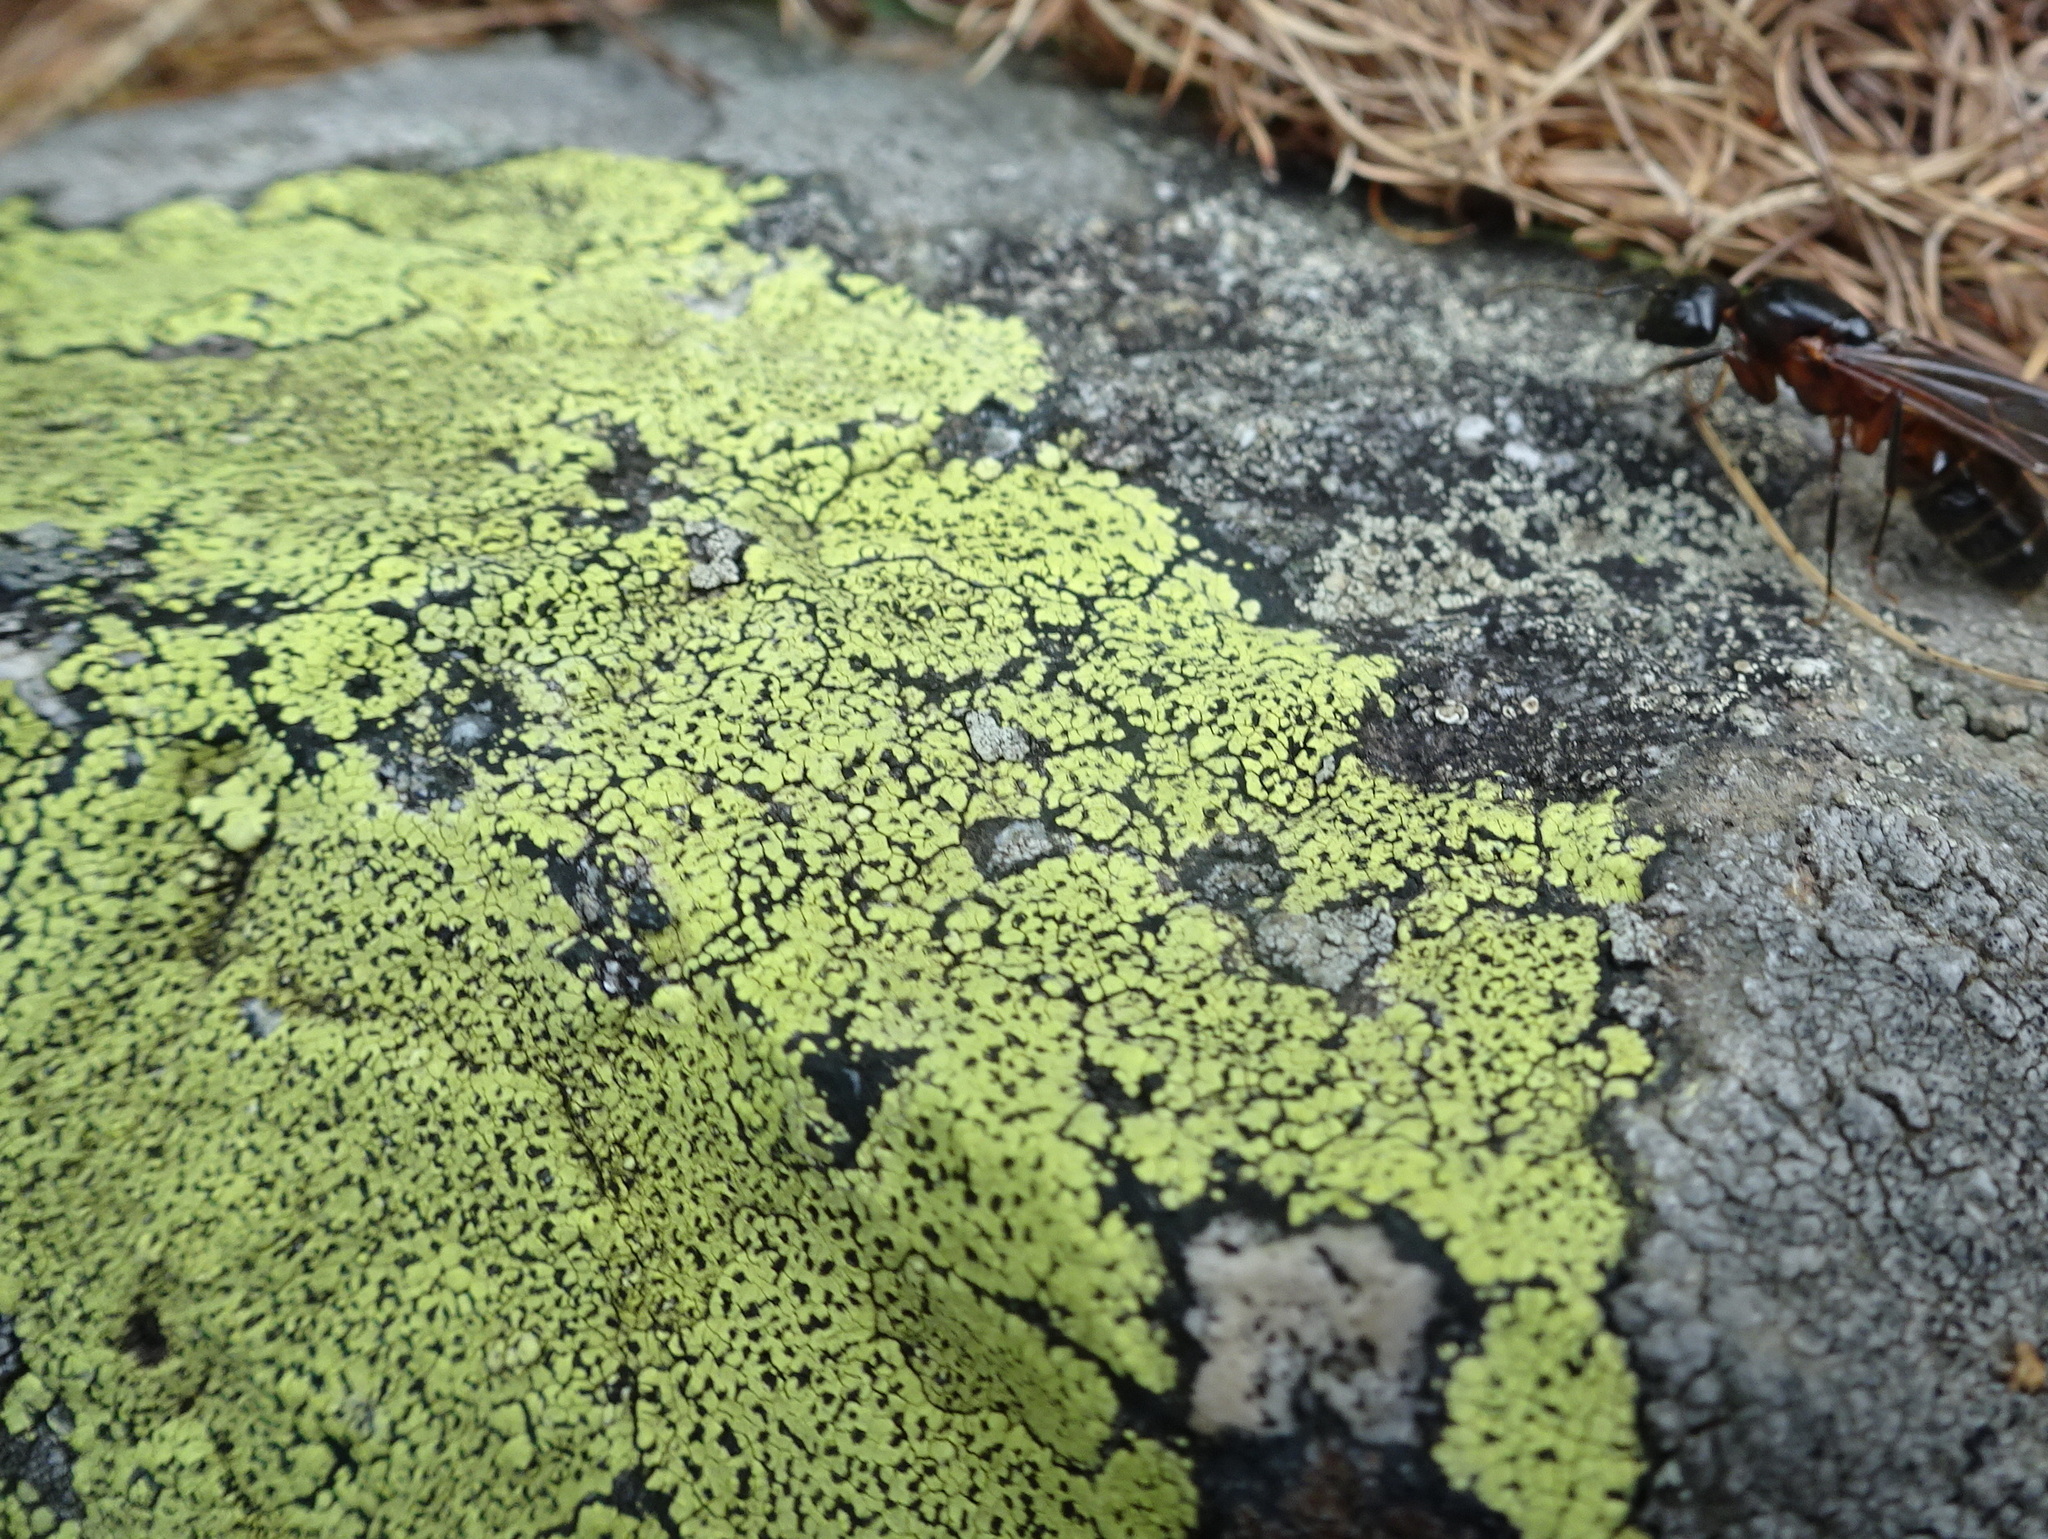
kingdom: Fungi
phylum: Ascomycota
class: Lecanoromycetes
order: Rhizocarpales
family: Rhizocarpaceae
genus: Rhizocarpon
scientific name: Rhizocarpon geographicum
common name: Yellow map lichen
